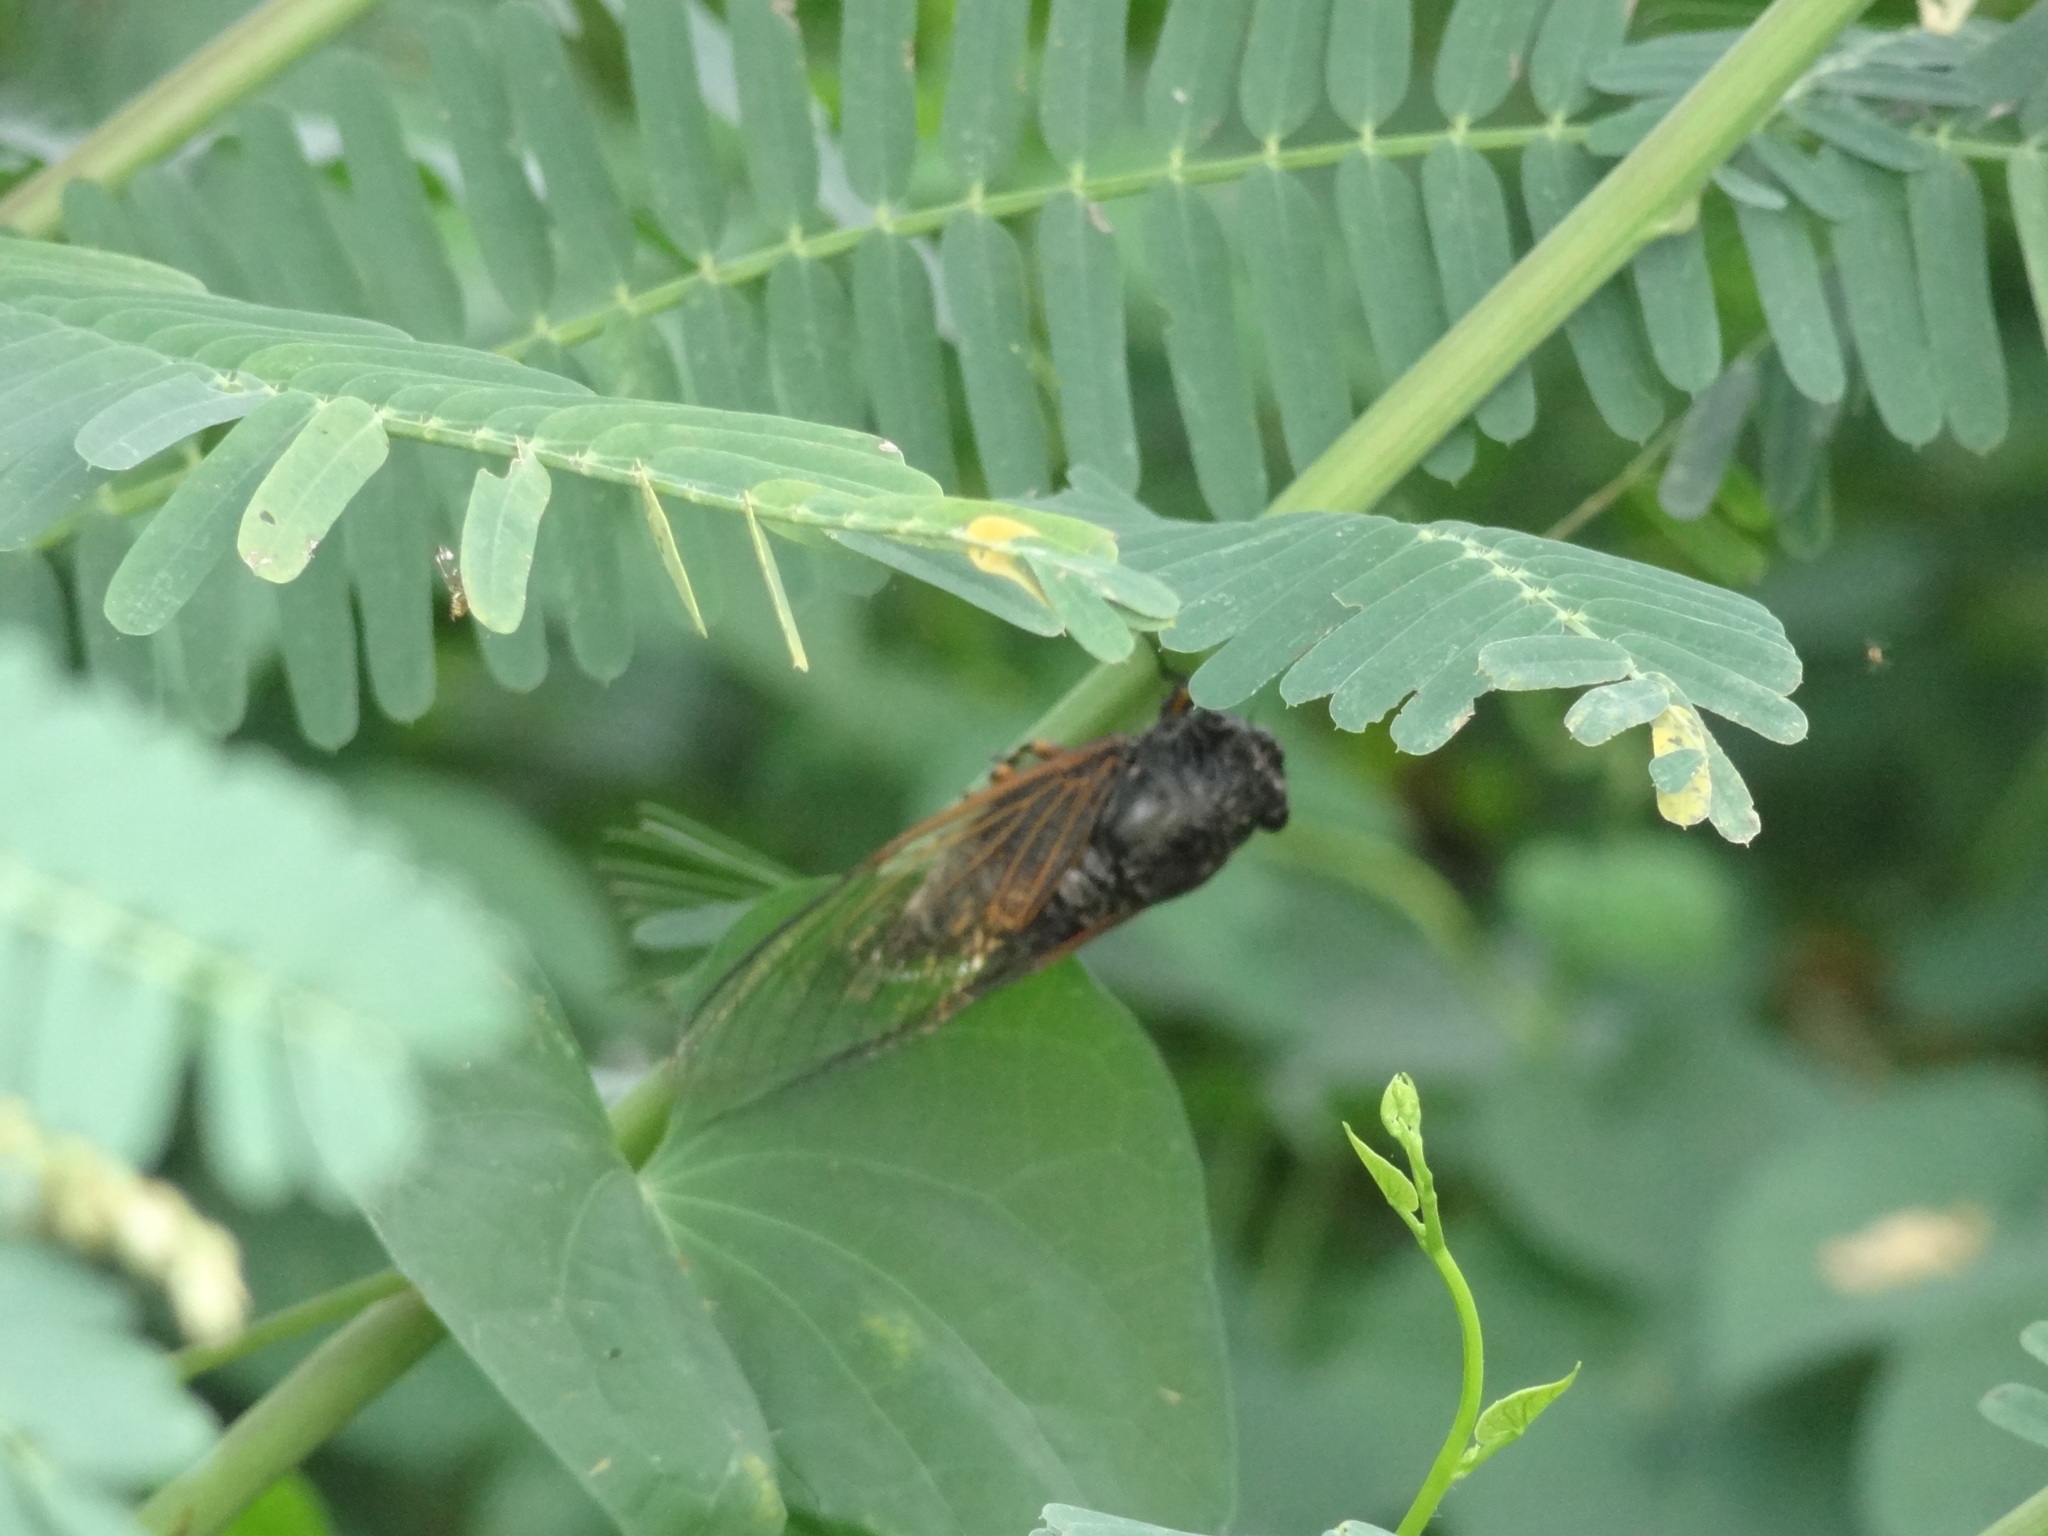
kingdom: Animalia
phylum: Arthropoda
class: Insecta
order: Hemiptera
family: Cicadidae
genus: Cryptotympana
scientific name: Cryptotympana atrata
